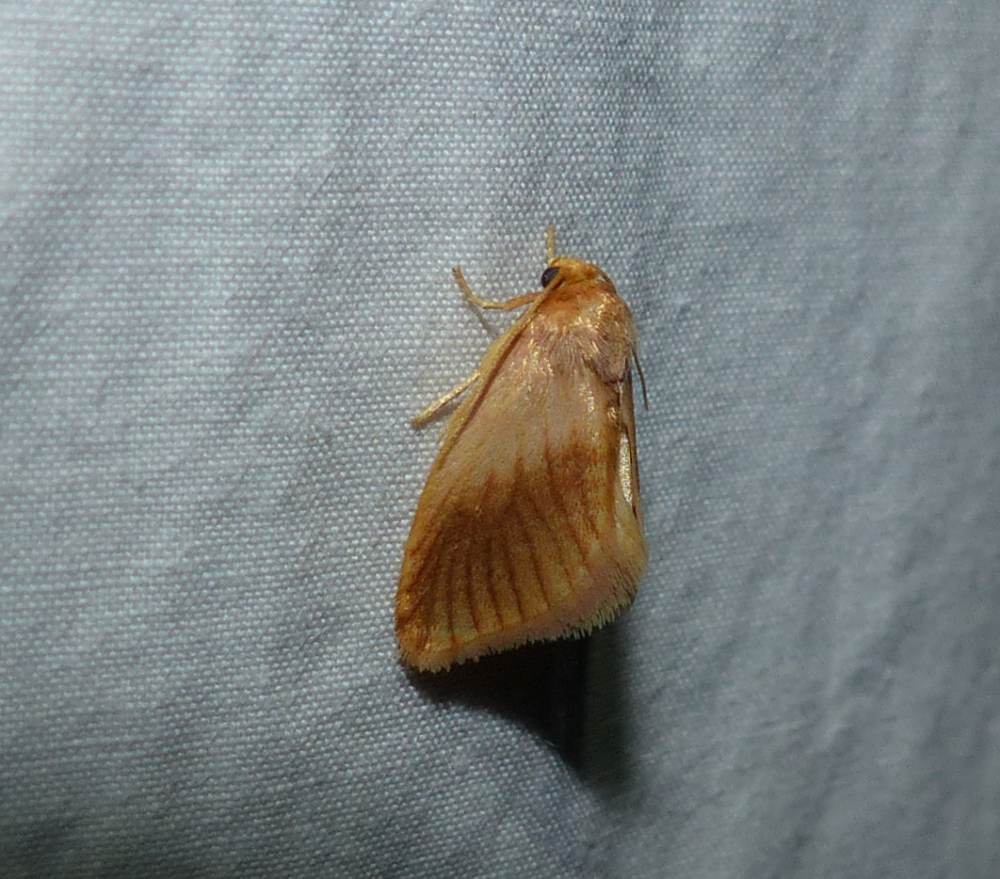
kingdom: Animalia
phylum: Arthropoda
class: Insecta
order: Lepidoptera
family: Limacodidae
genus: Tortricidia
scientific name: Tortricidia testacea
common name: Early button slug moth
